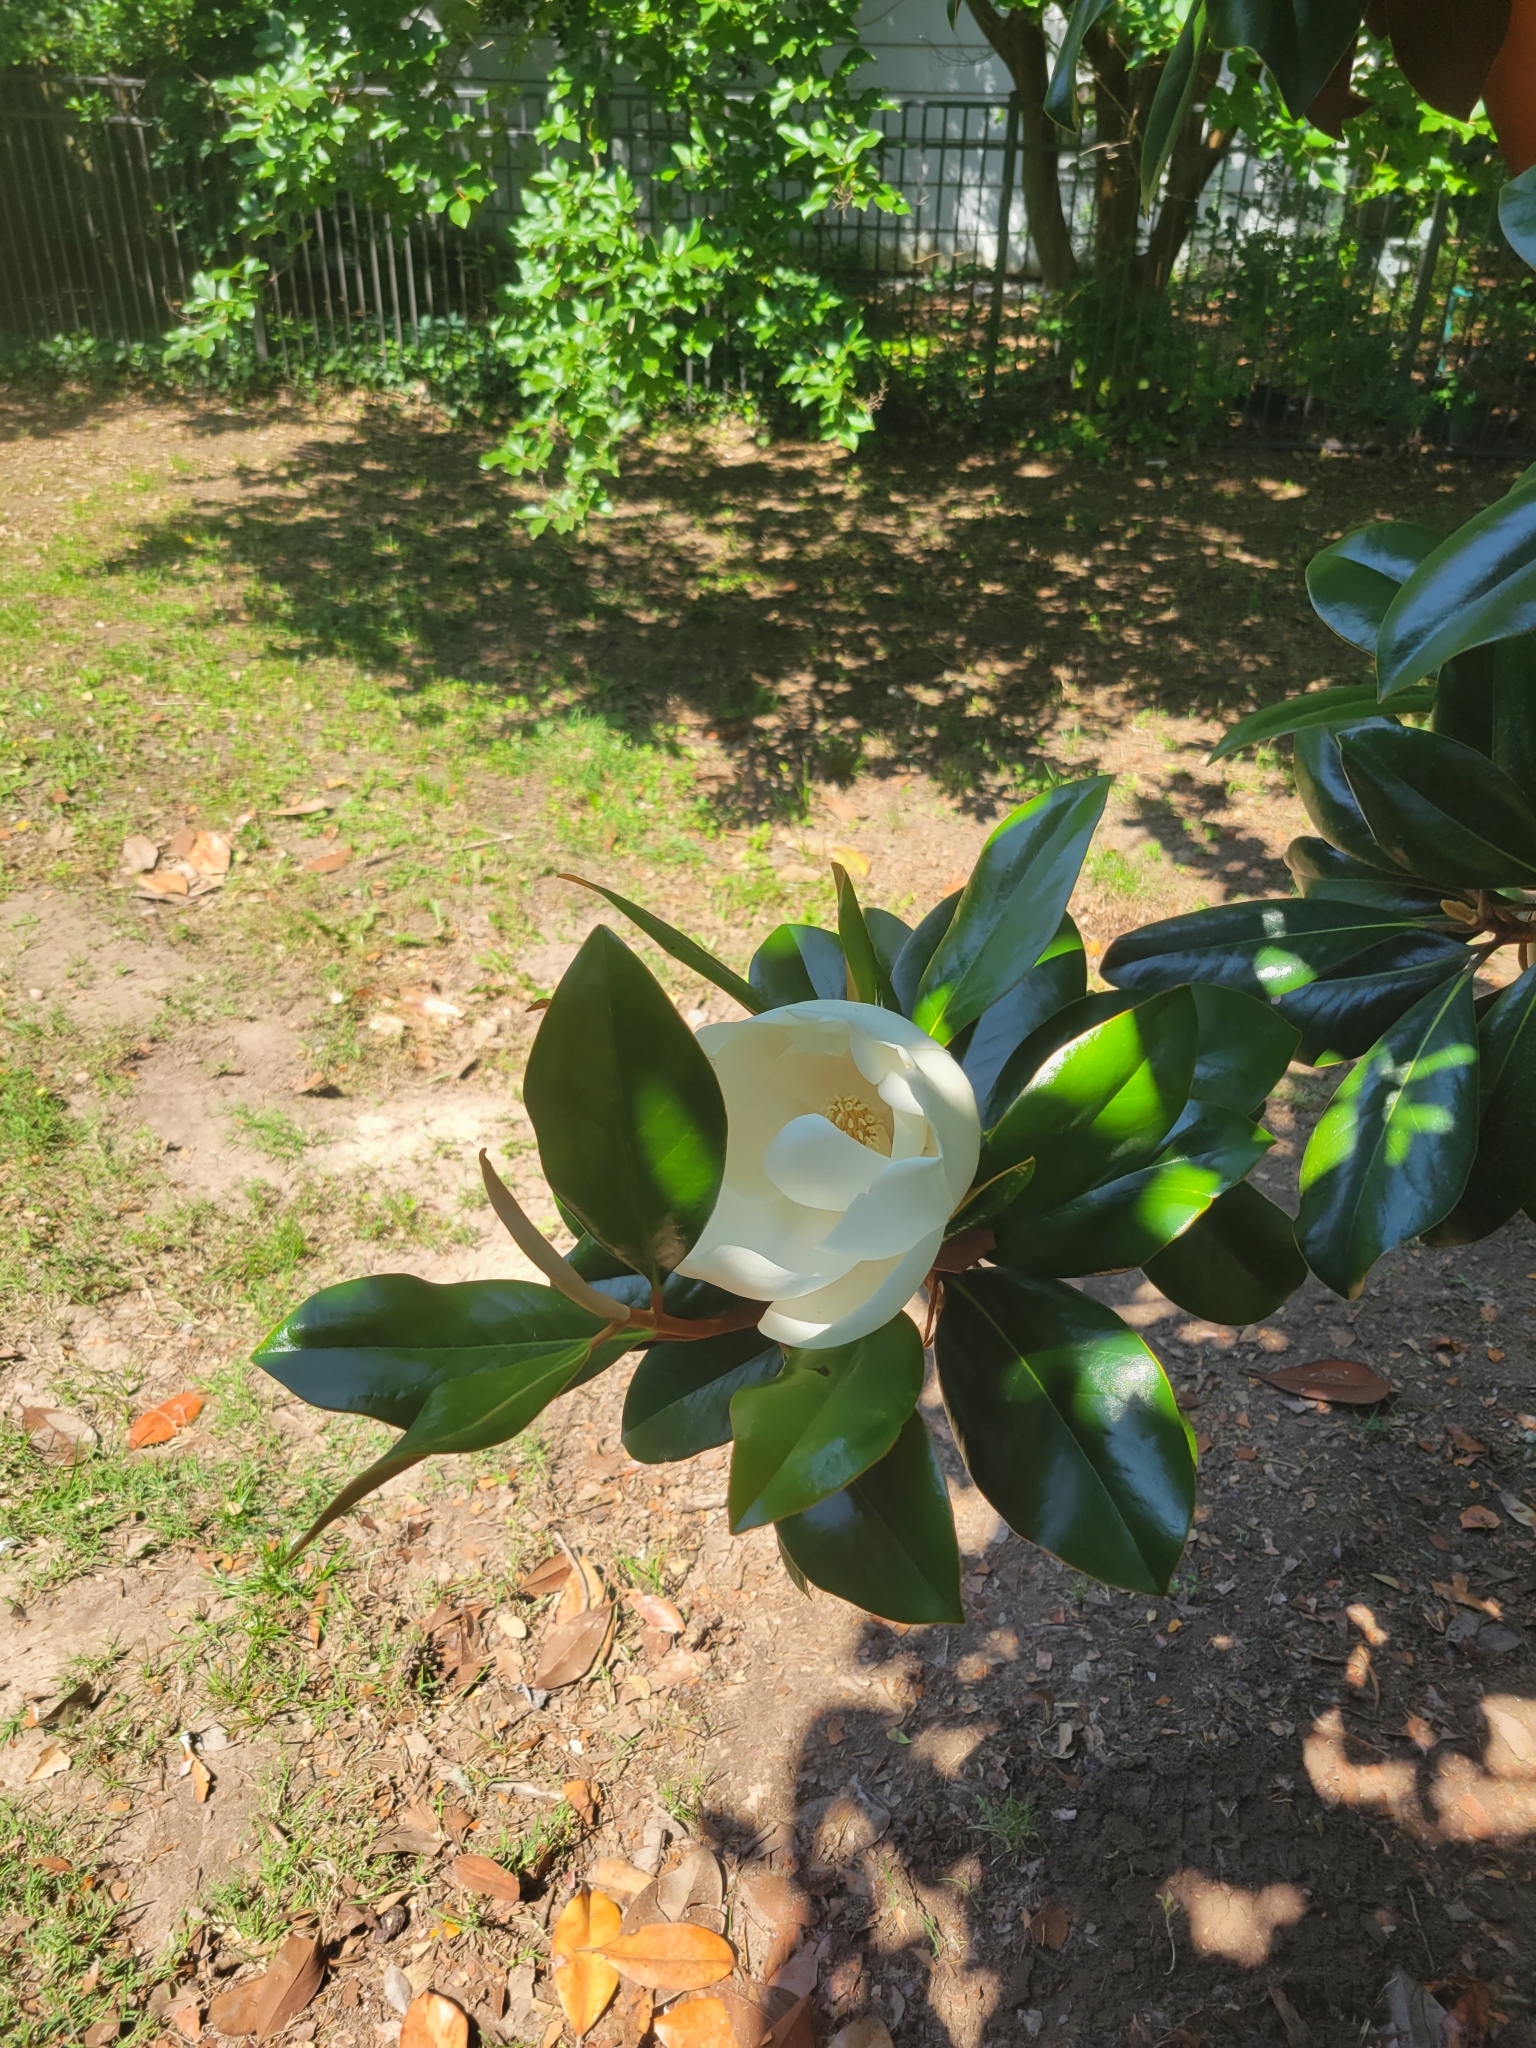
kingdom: Plantae
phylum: Tracheophyta
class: Magnoliopsida
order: Magnoliales
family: Magnoliaceae
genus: Magnolia
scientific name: Magnolia grandiflora
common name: Southern magnolia
